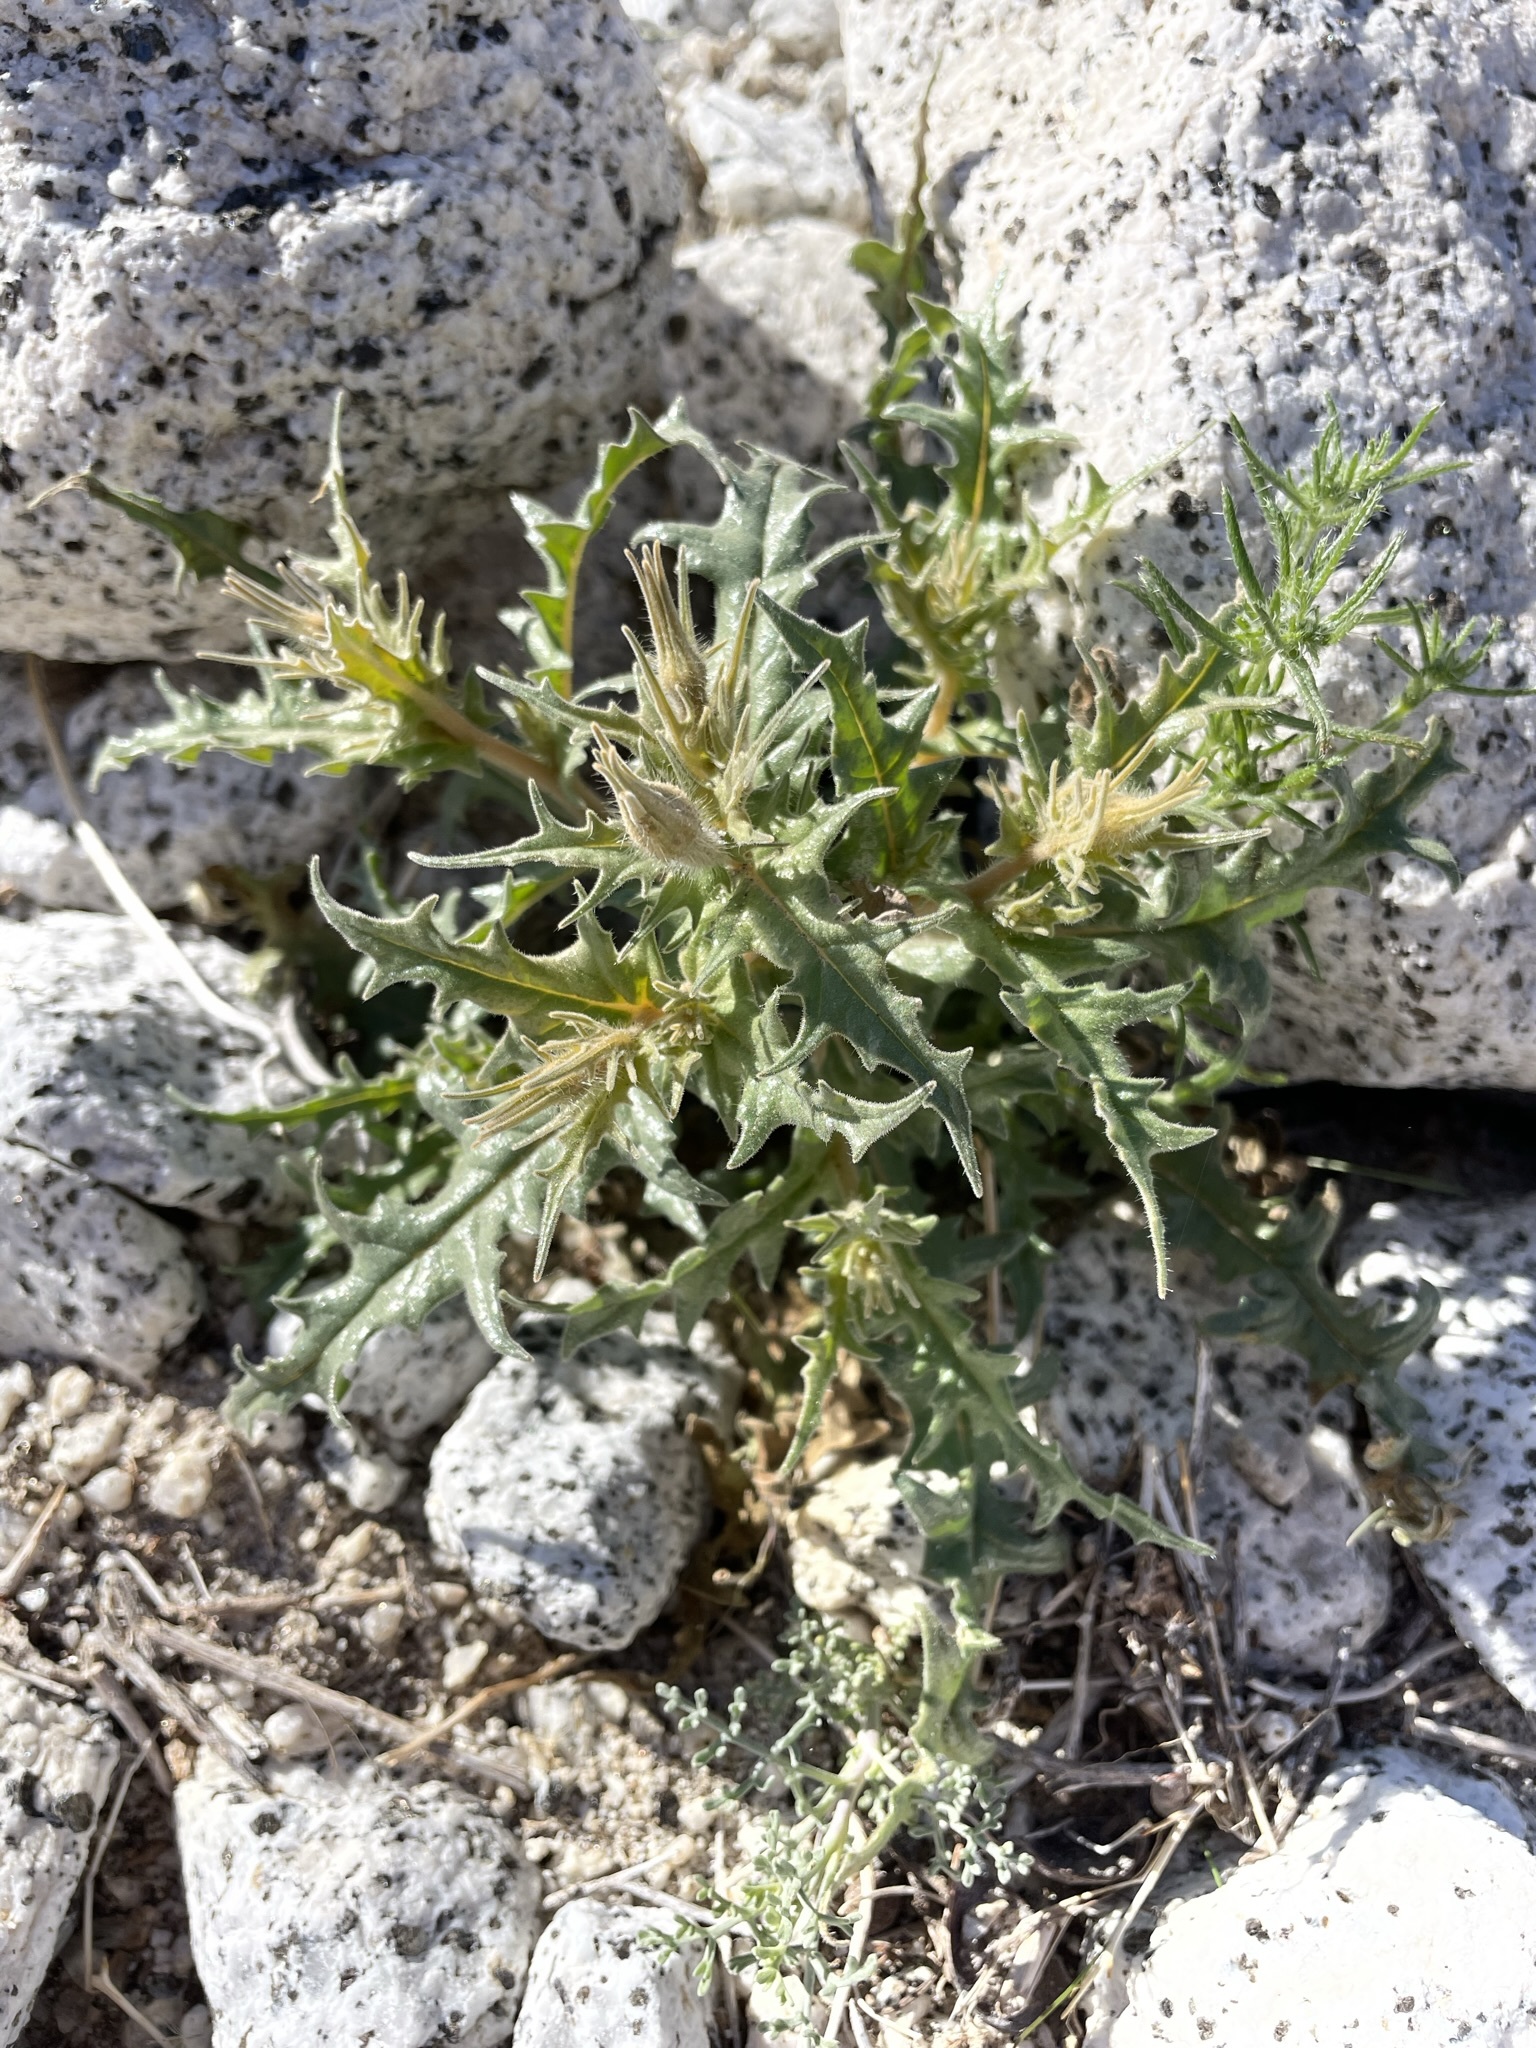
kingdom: Plantae
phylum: Tracheophyta
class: Magnoliopsida
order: Cornales
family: Loasaceae
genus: Mentzelia
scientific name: Mentzelia hirsutissima
